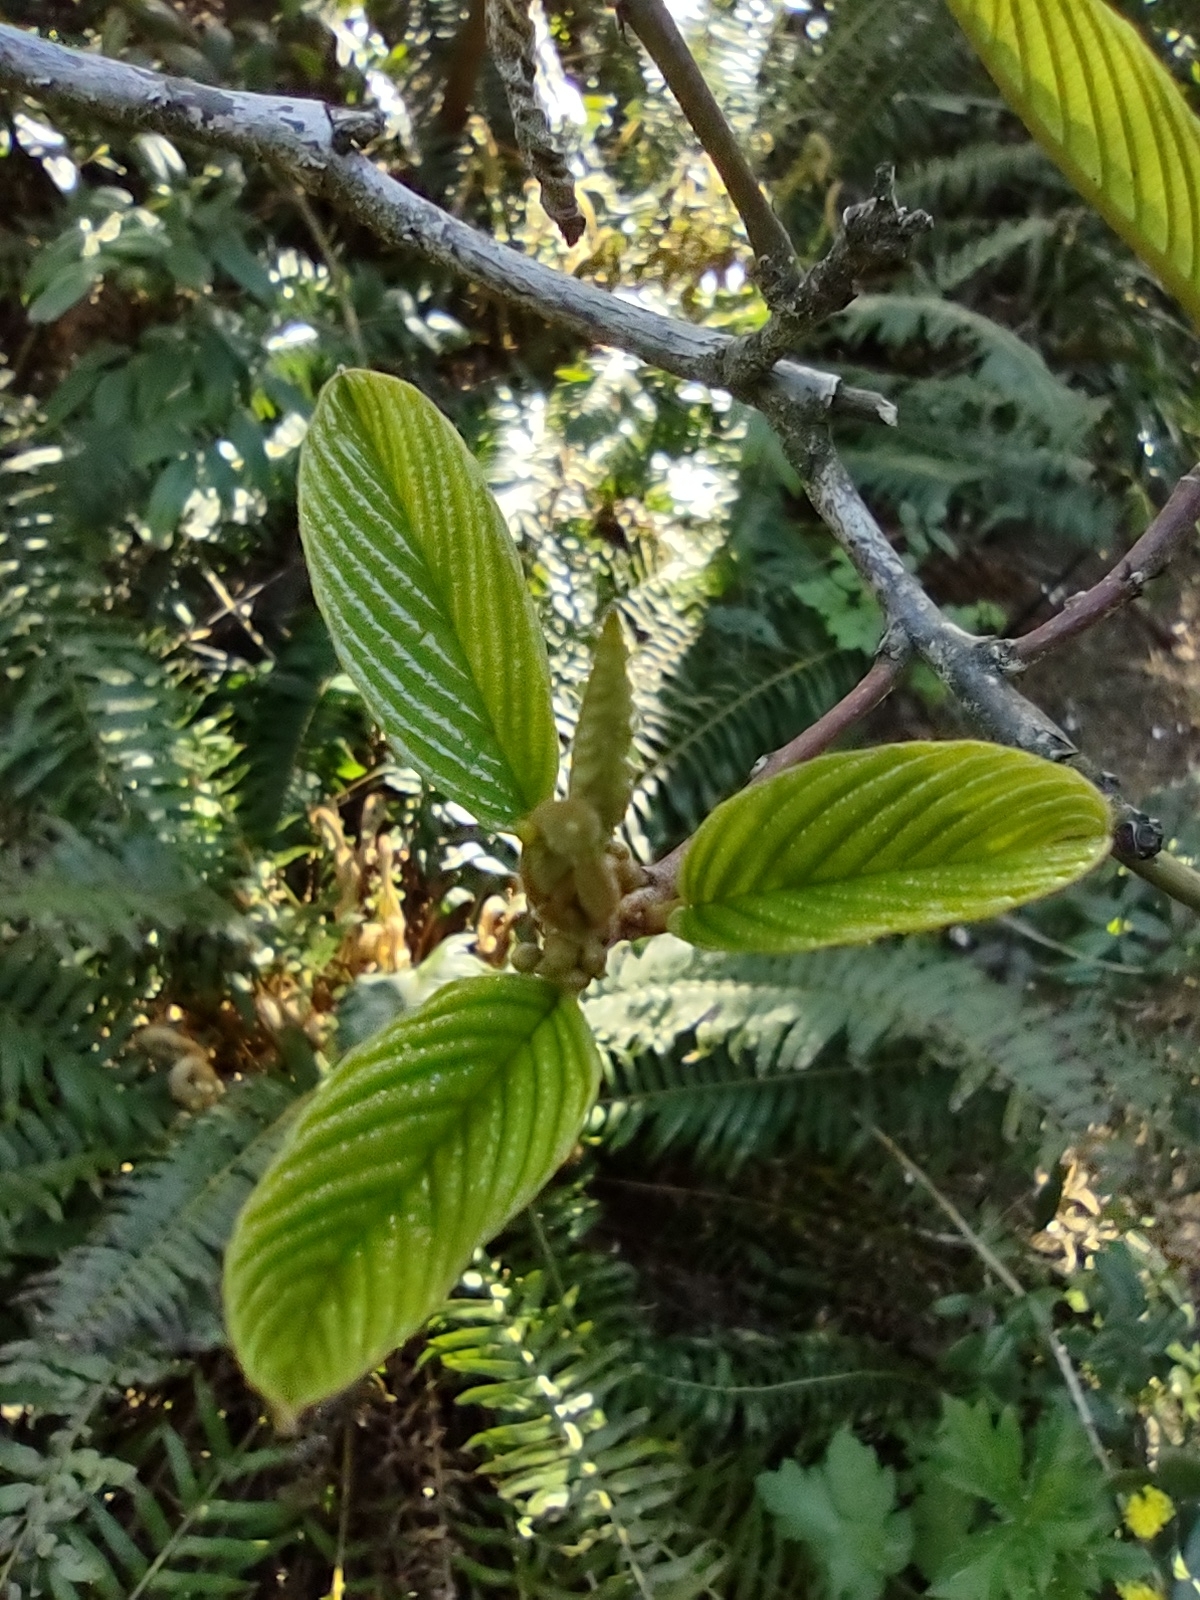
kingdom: Plantae
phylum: Tracheophyta
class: Magnoliopsida
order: Rosales
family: Rhamnaceae
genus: Frangula
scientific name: Frangula purshiana
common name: Cascara buckthorn
